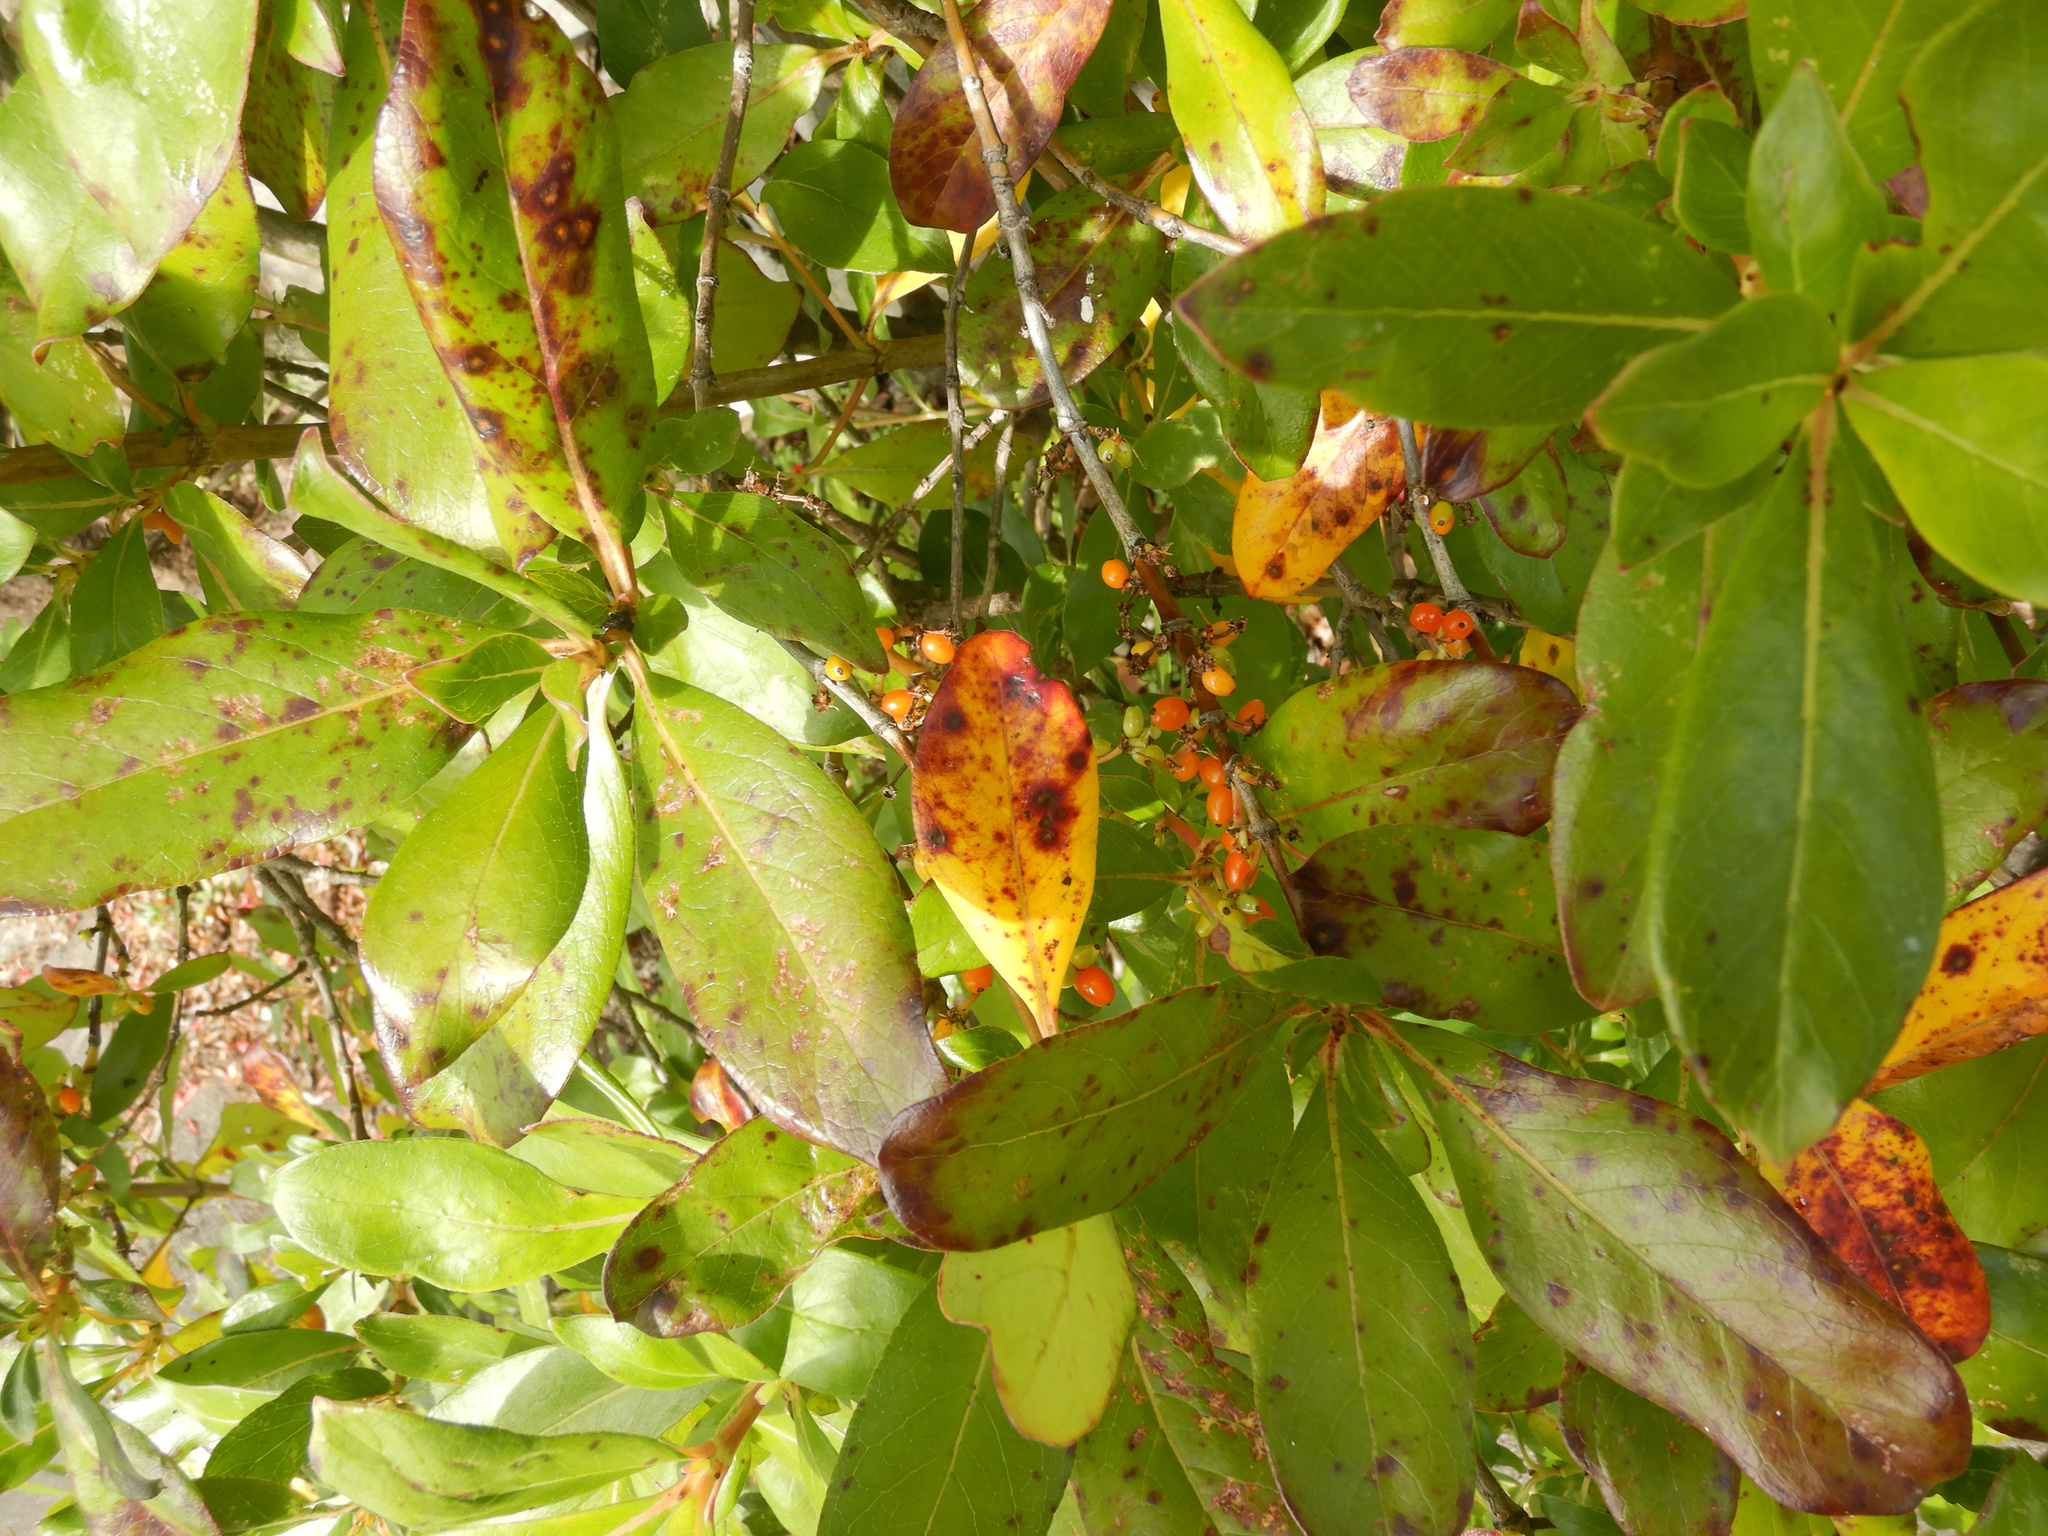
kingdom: Plantae
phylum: Tracheophyta
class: Magnoliopsida
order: Gentianales
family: Rubiaceae
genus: Coprosma
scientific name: Coprosma robusta
